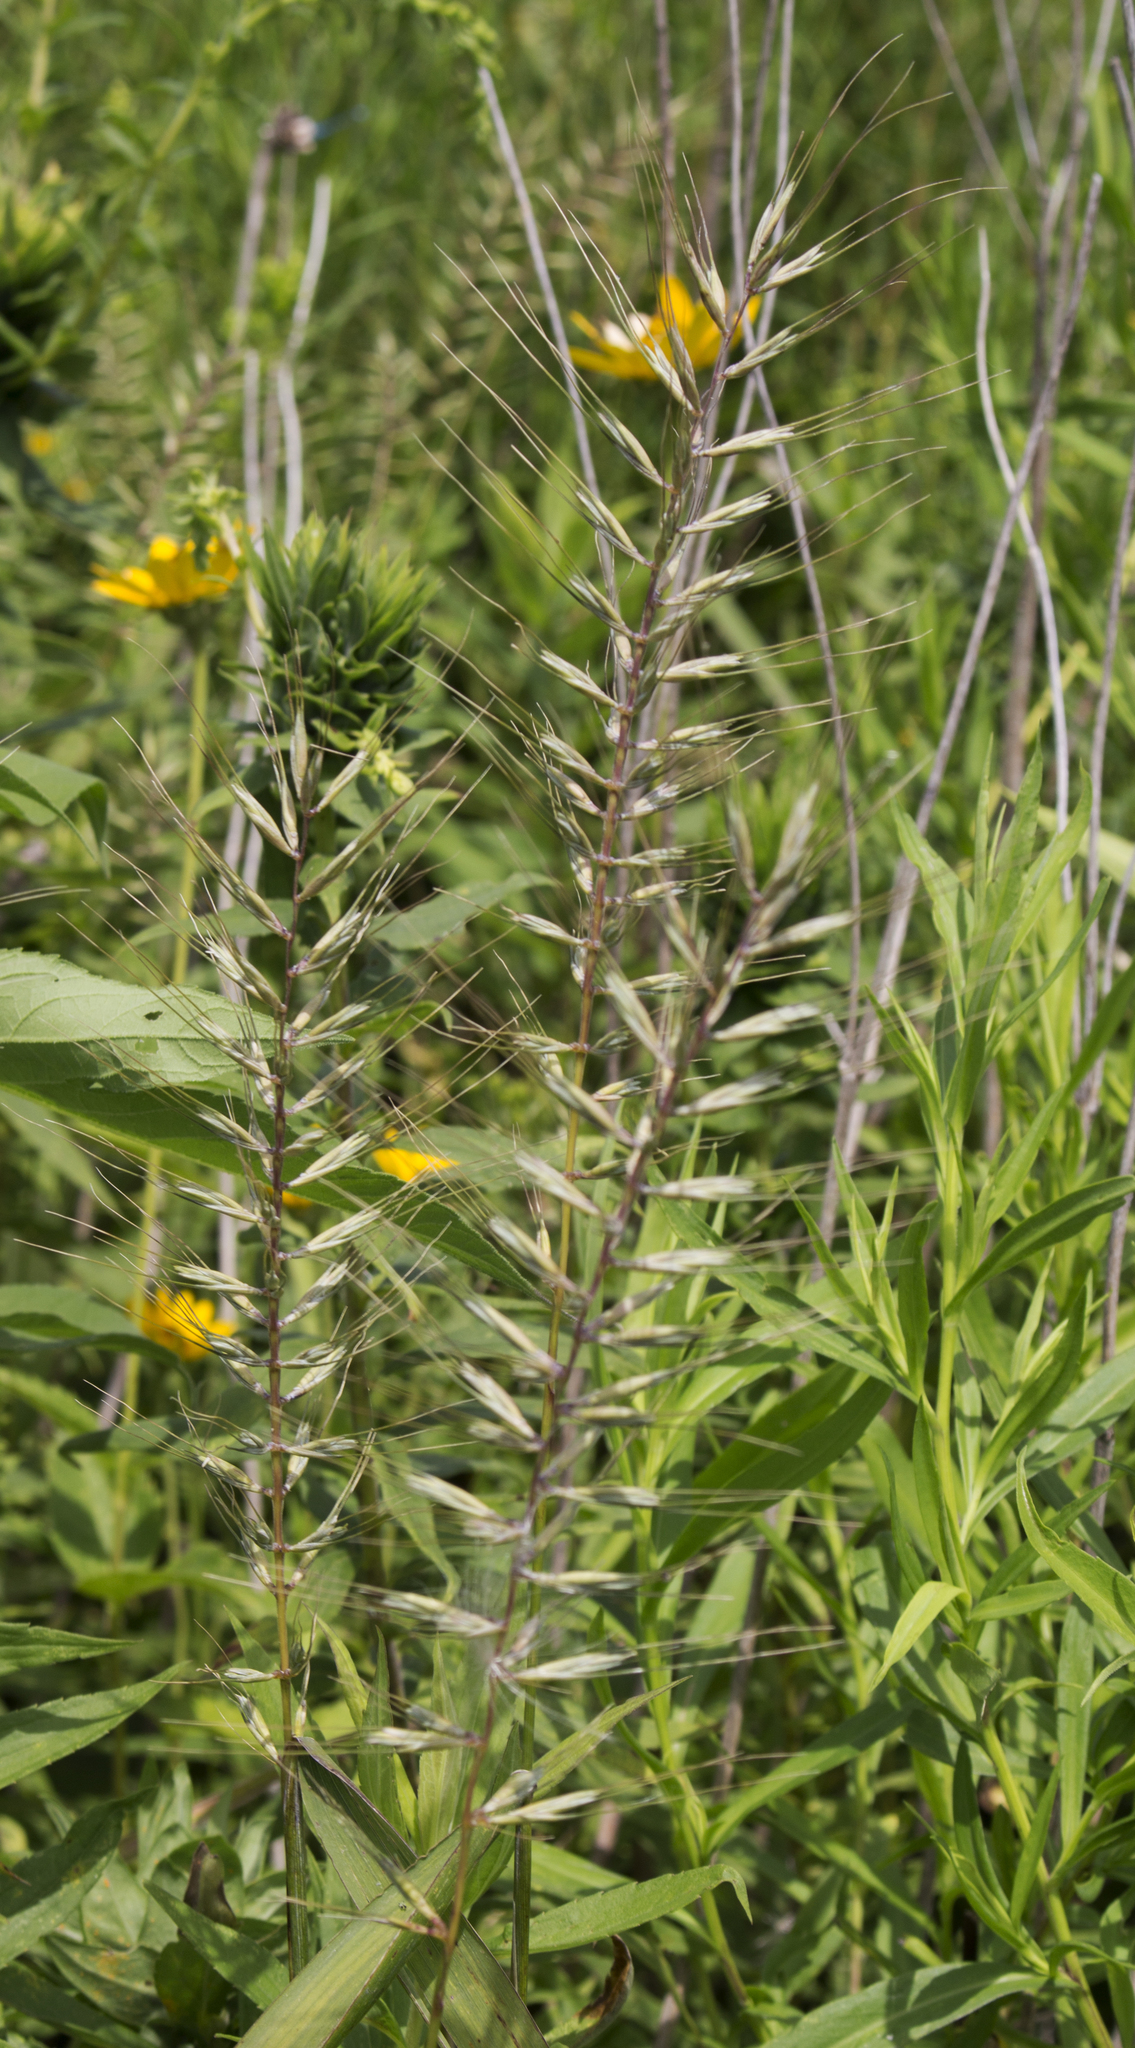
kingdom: Plantae
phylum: Tracheophyta
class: Liliopsida
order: Poales
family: Poaceae
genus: Elymus
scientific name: Elymus hystrix
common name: Bottlebrush grass
